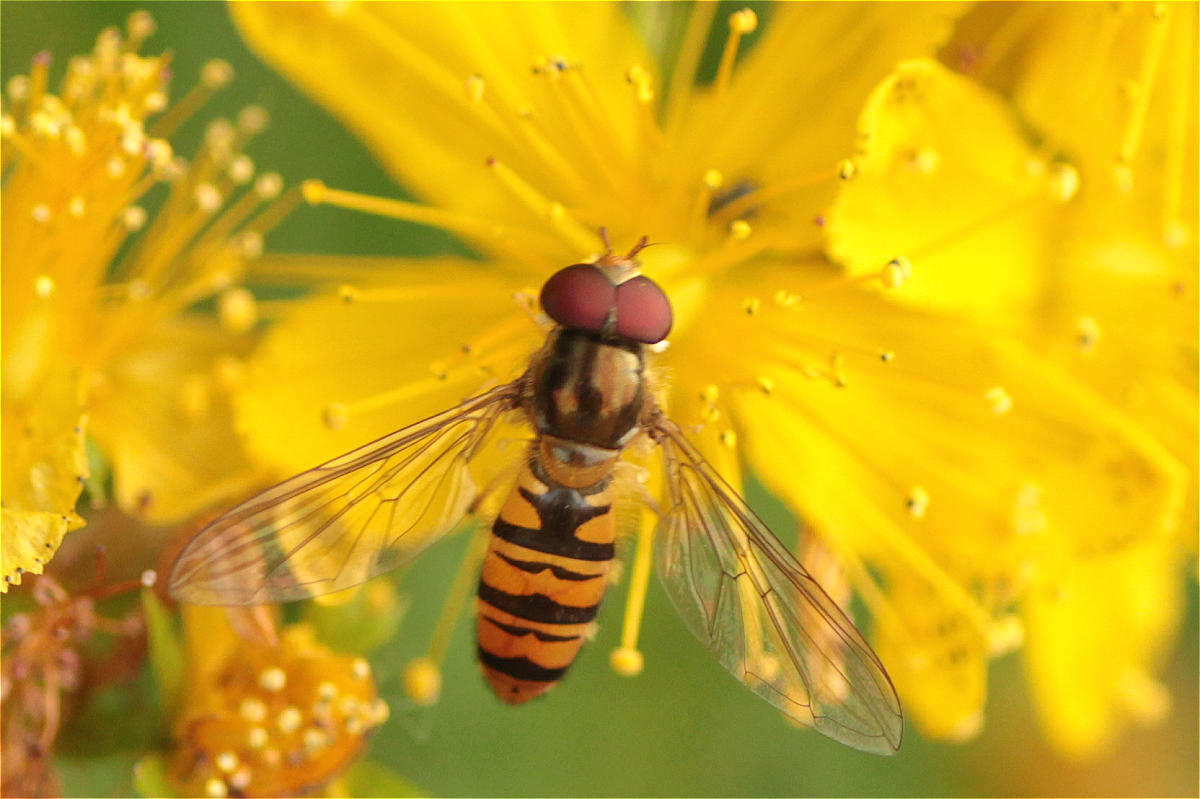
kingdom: Animalia
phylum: Arthropoda
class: Insecta
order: Diptera
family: Syrphidae
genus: Episyrphus
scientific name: Episyrphus balteatus
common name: Marmalade hoverfly
